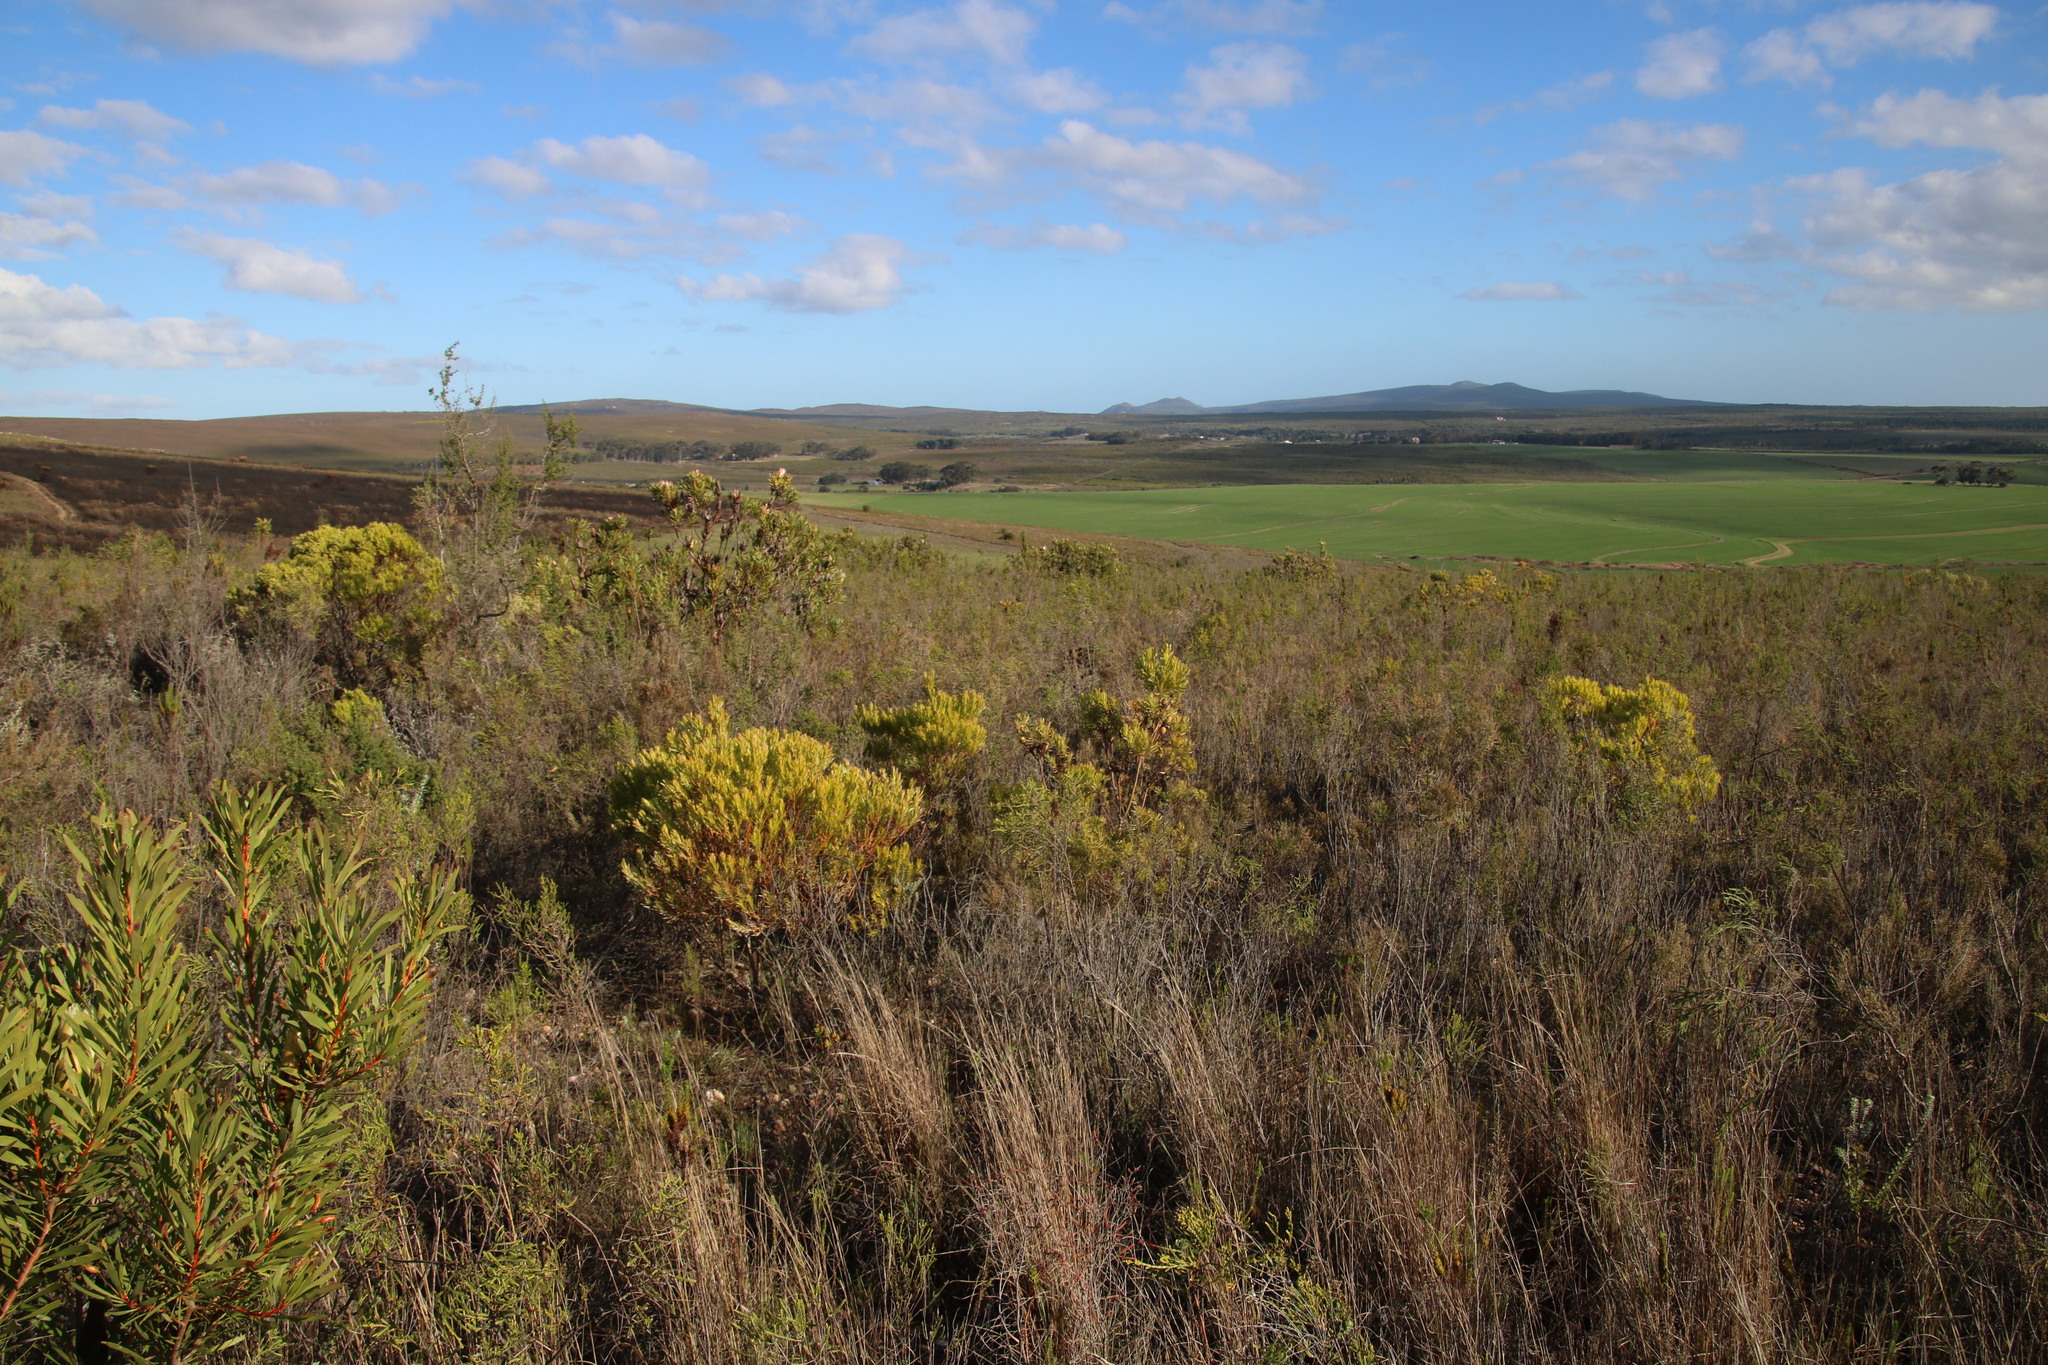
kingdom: Plantae
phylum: Tracheophyta
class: Magnoliopsida
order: Proteales
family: Proteaceae
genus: Leucadendron
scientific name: Leucadendron xanthoconus
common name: Sickle-leaf conebush
